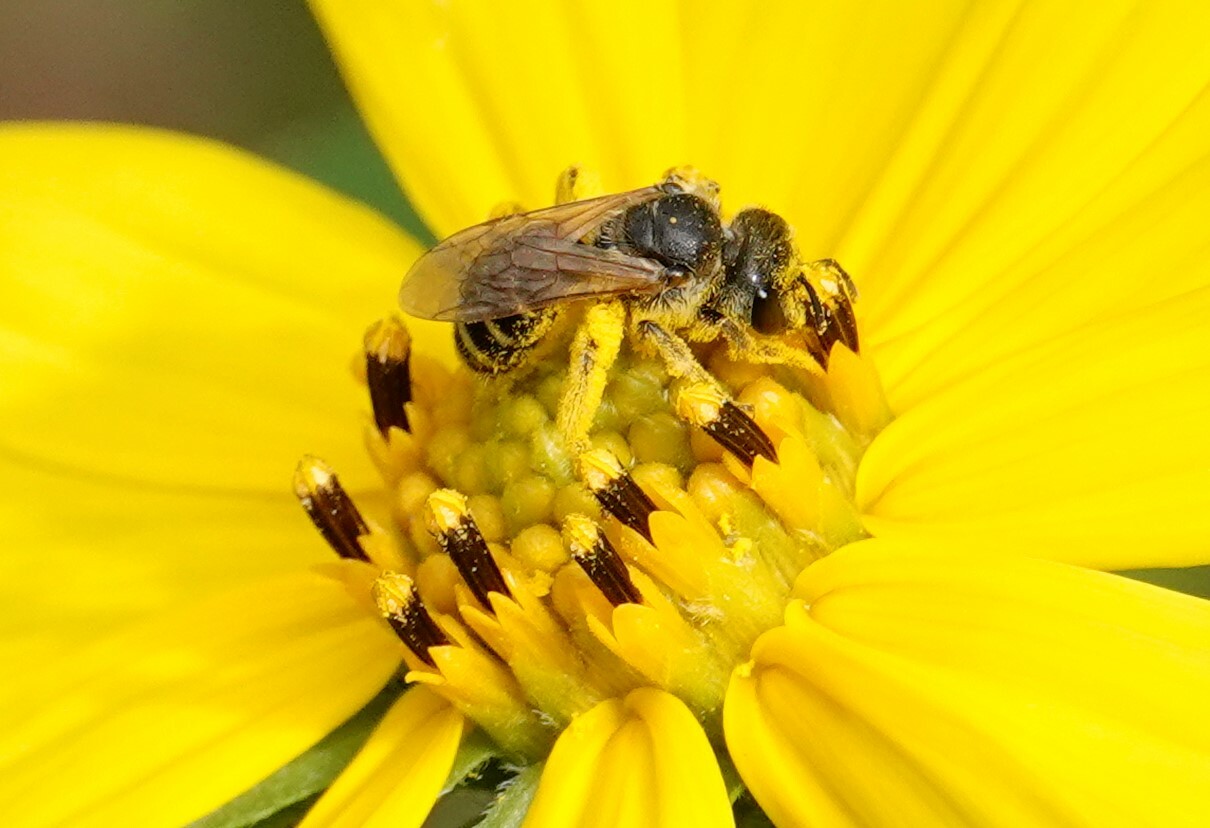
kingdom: Animalia
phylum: Arthropoda
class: Insecta
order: Hymenoptera
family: Halictidae
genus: Halictus
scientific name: Halictus ligatus
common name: Ligated furrow bee
